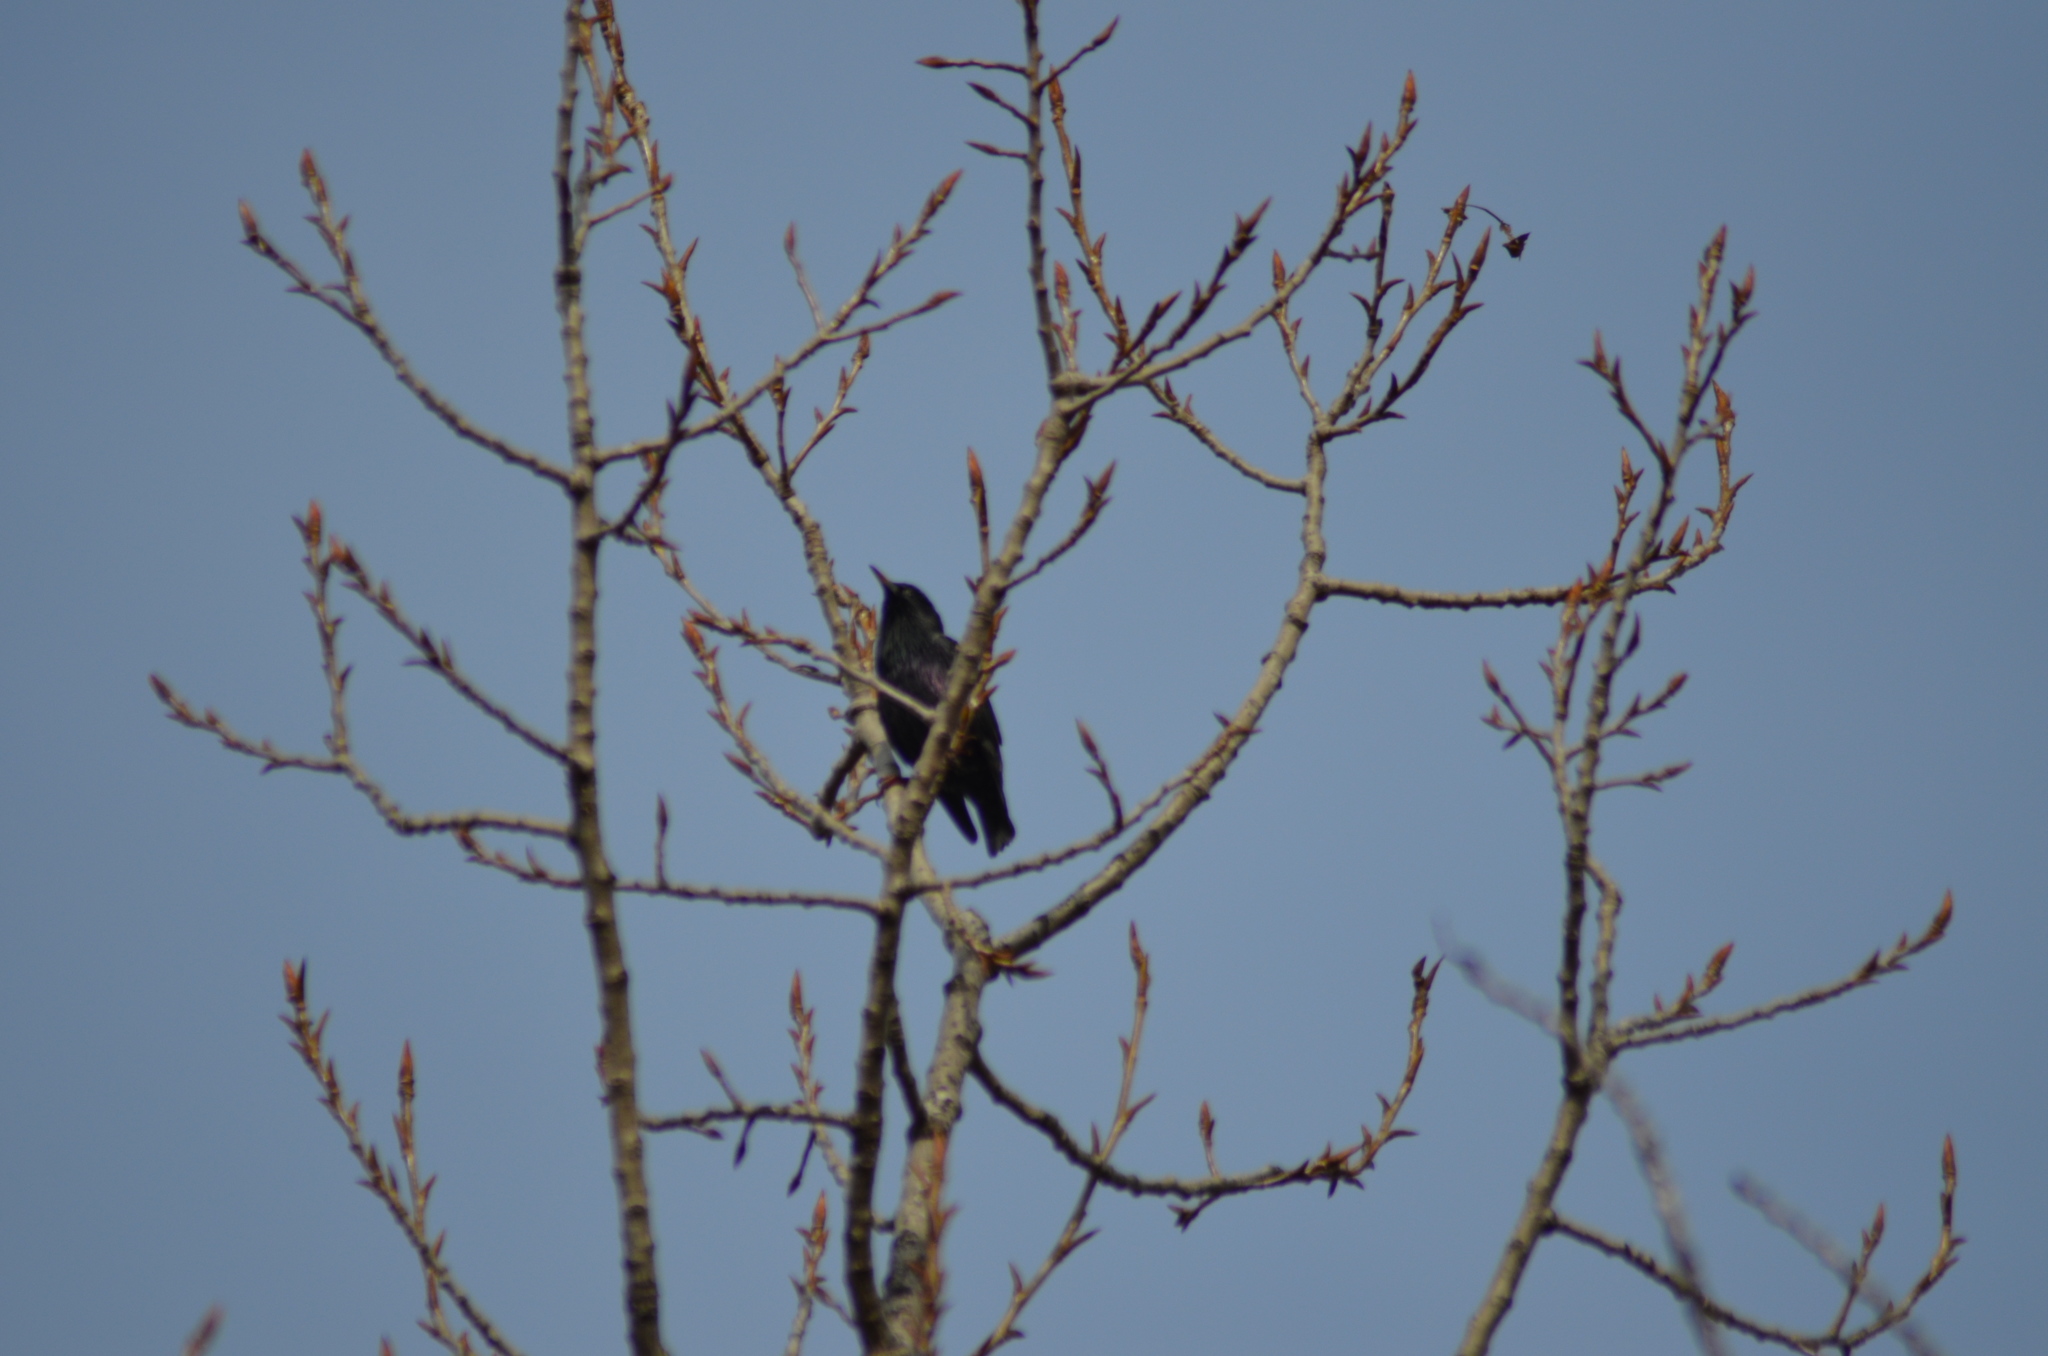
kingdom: Animalia
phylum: Chordata
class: Aves
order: Passeriformes
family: Sturnidae
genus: Sturnus
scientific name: Sturnus vulgaris
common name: Common starling
